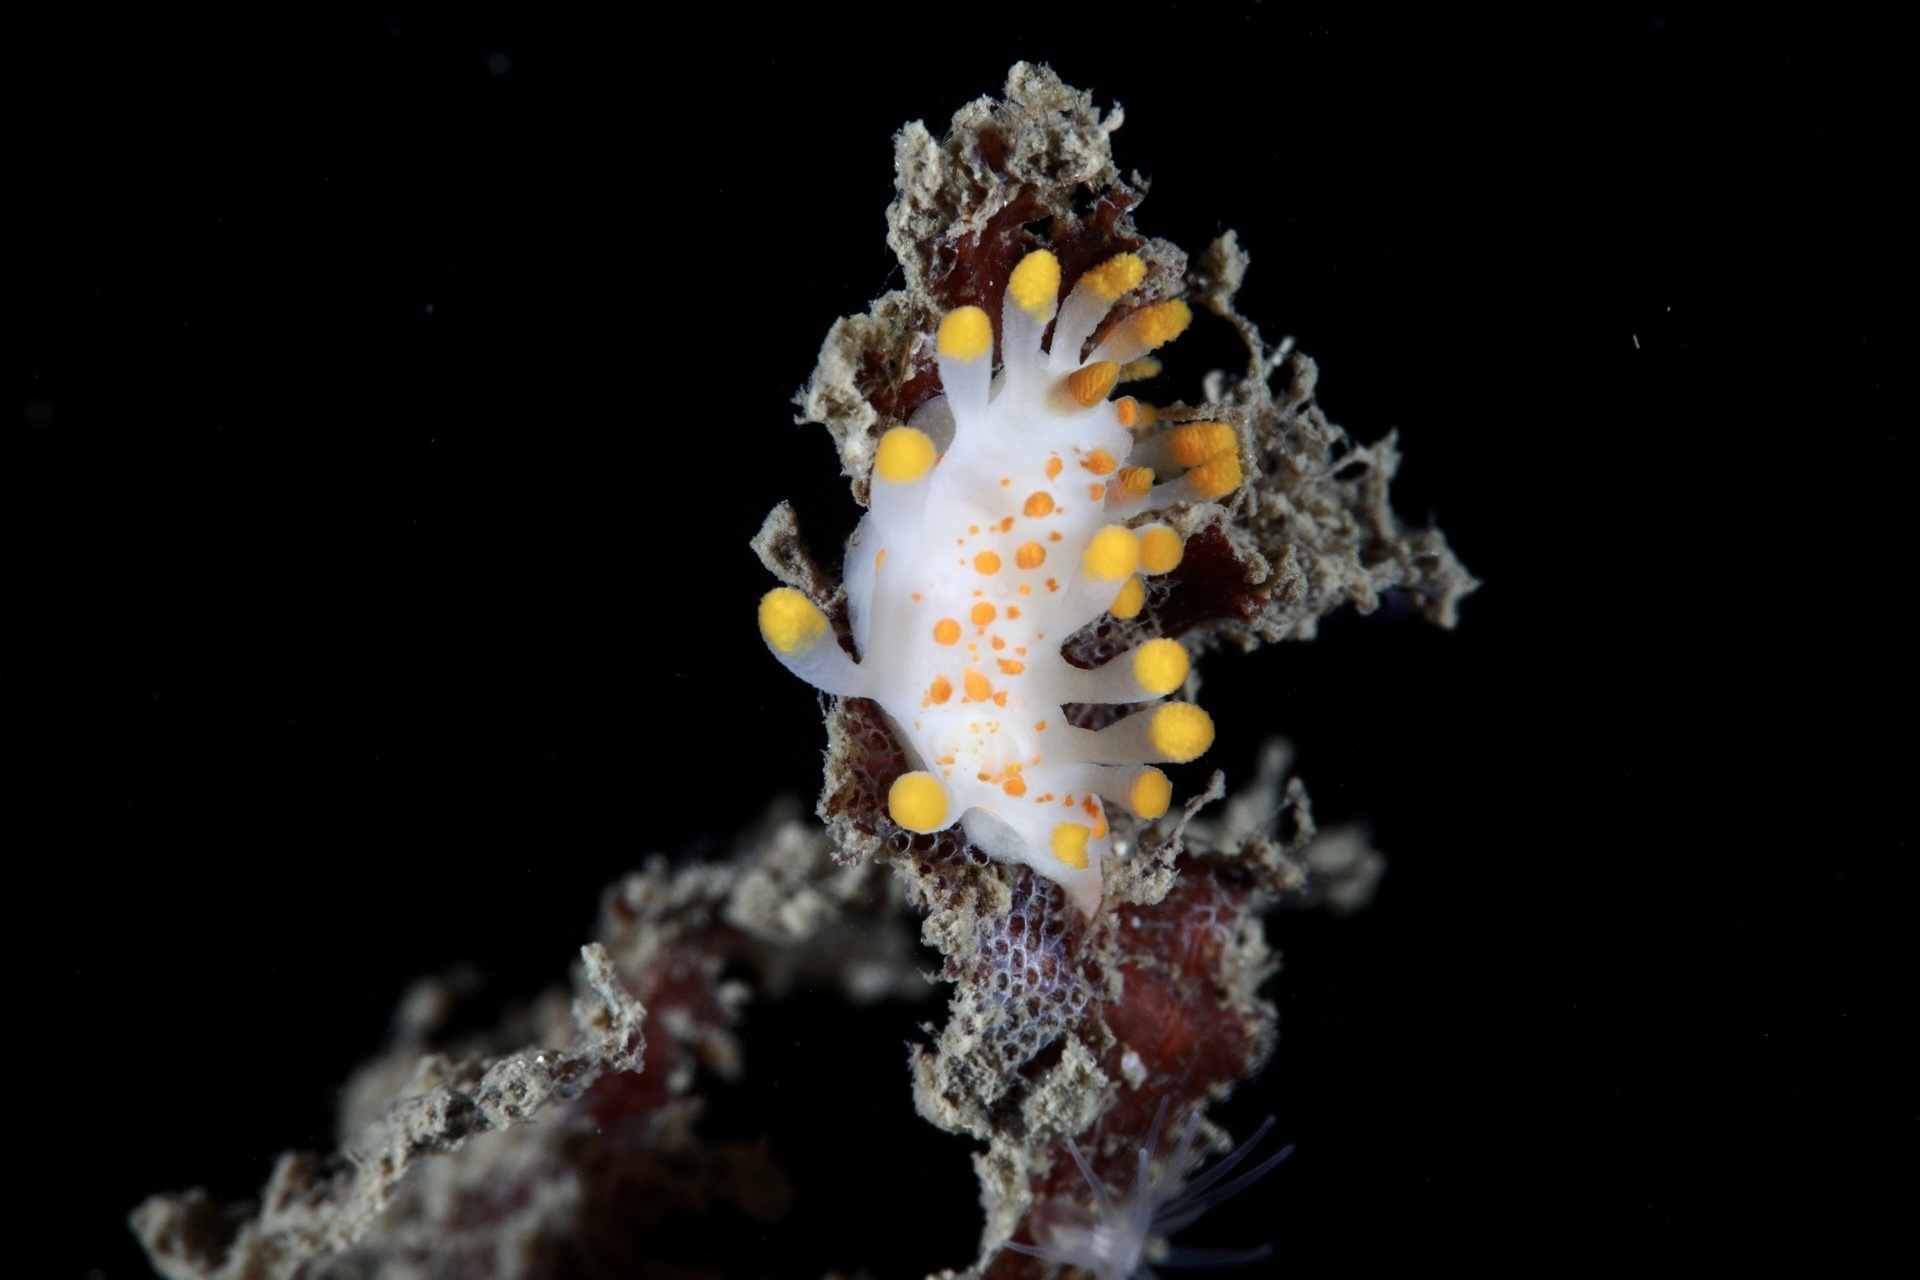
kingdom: Animalia
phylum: Mollusca
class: Gastropoda
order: Nudibranchia
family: Polyceridae
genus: Limacia
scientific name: Limacia clavigera
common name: Orange-clubbed sea slug
